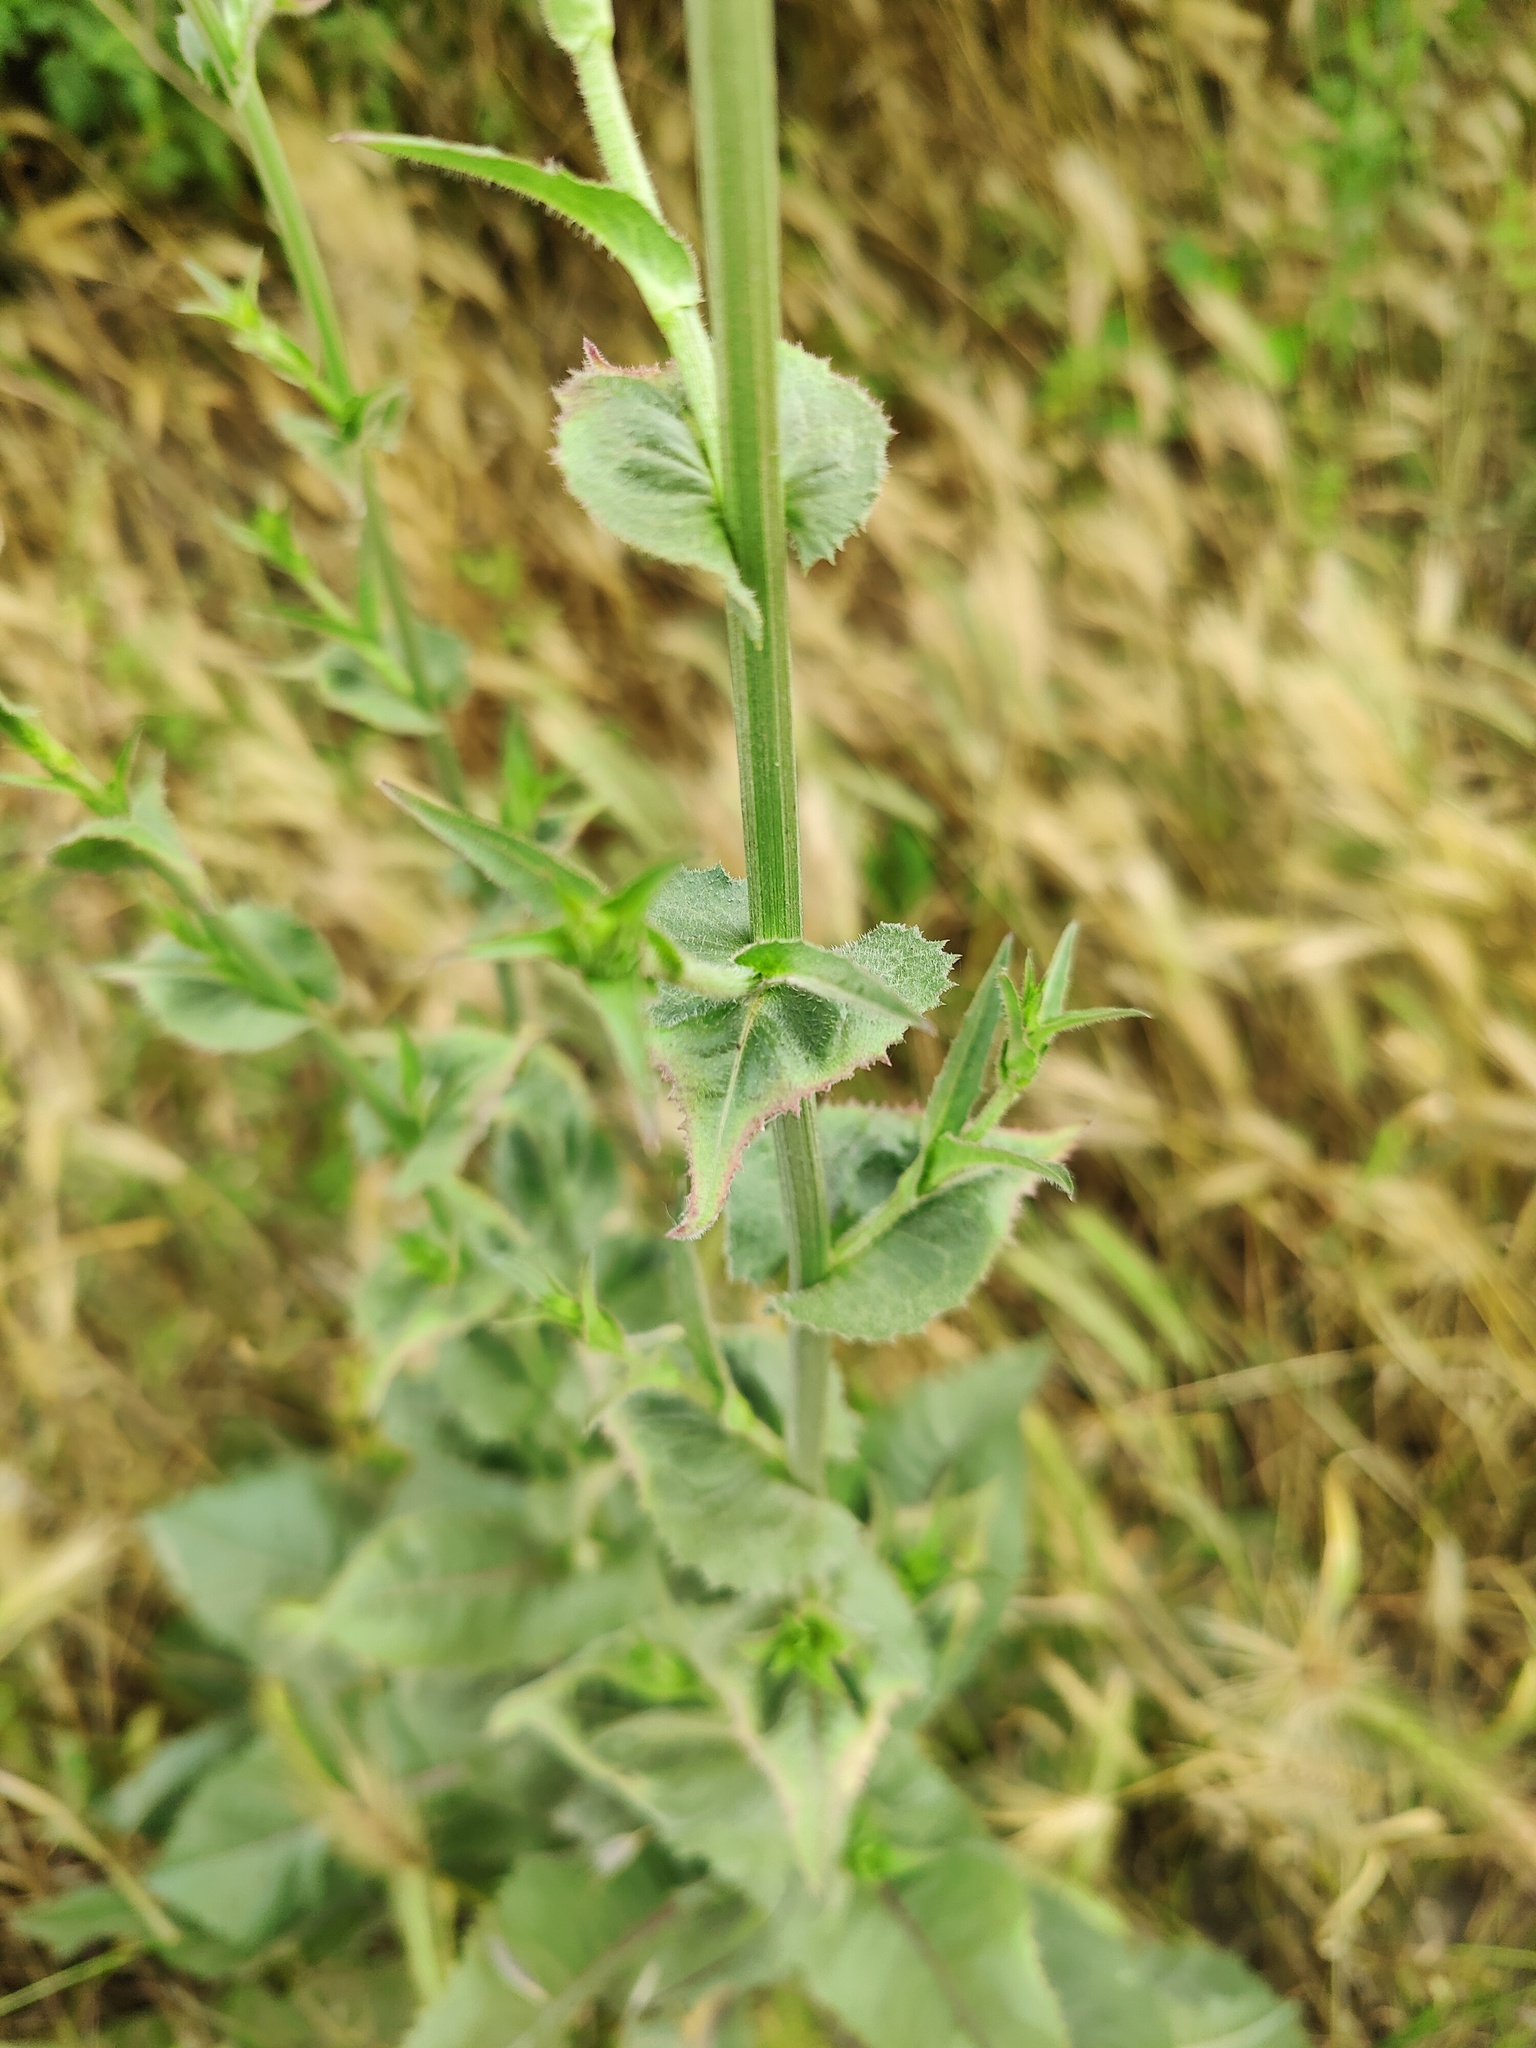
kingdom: Plantae
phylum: Tracheophyta
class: Magnoliopsida
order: Asterales
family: Asteraceae
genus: Cichorium
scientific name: Cichorium intybus
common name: Chicory
